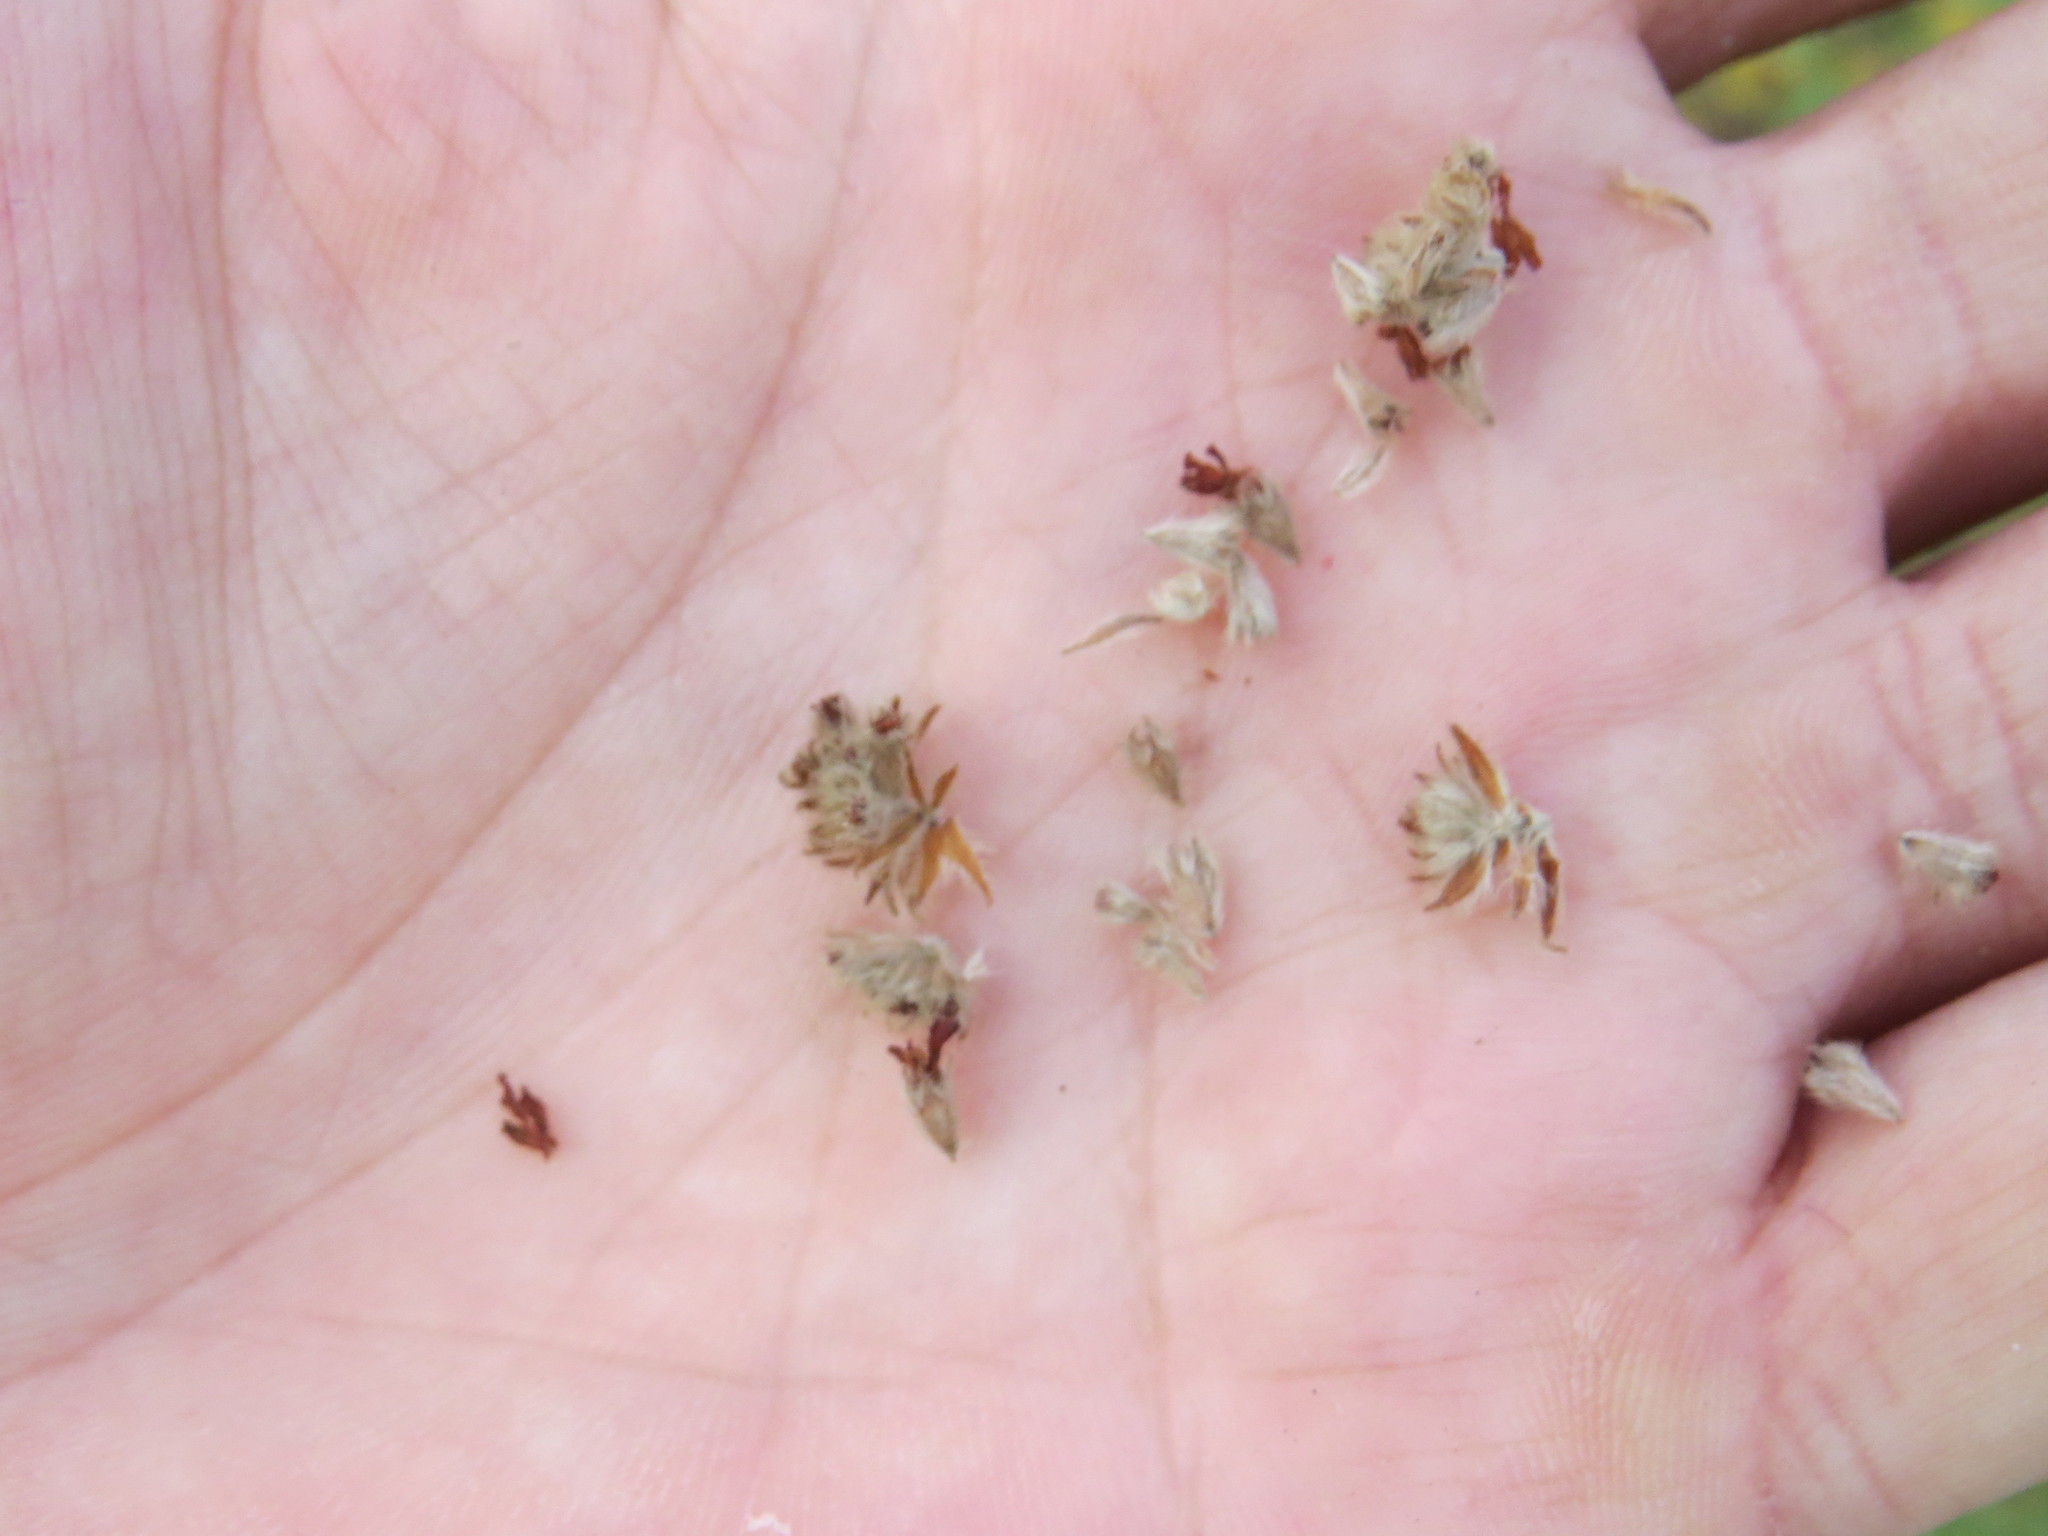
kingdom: Plantae
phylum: Tracheophyta
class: Magnoliopsida
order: Malvales
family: Malvaceae
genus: Waltheria
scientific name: Waltheria indica
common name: Leather-coat
